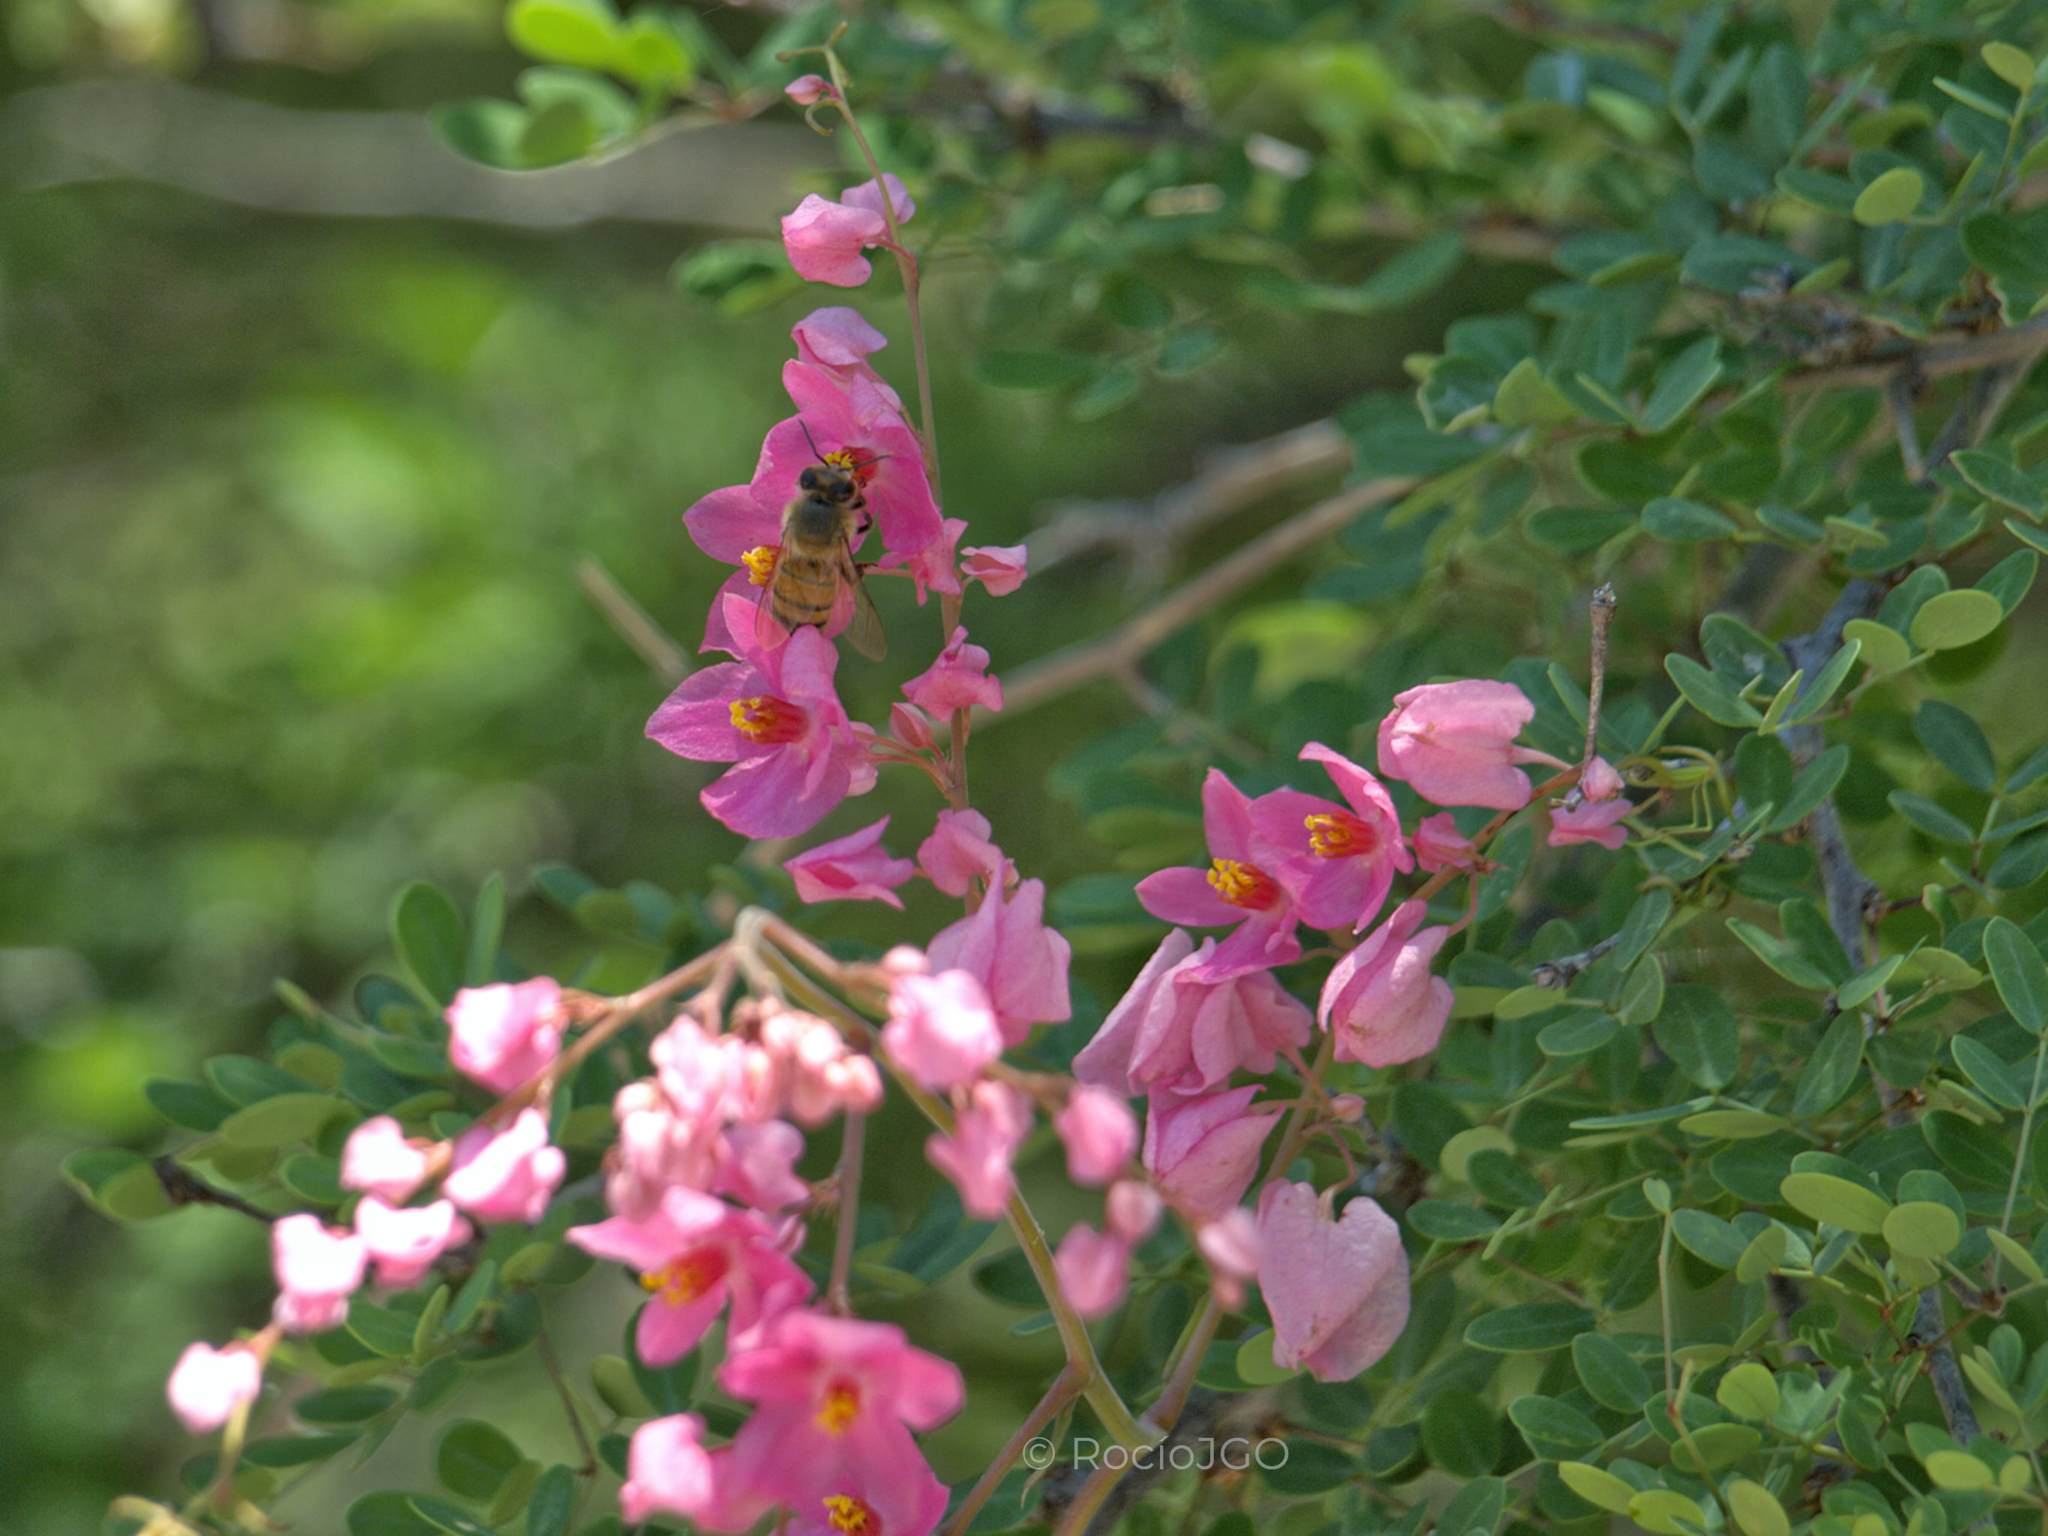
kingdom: Plantae
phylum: Tracheophyta
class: Magnoliopsida
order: Caryophyllales
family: Polygonaceae
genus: Antigonon
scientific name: Antigonon leptopus
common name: Coral vine
